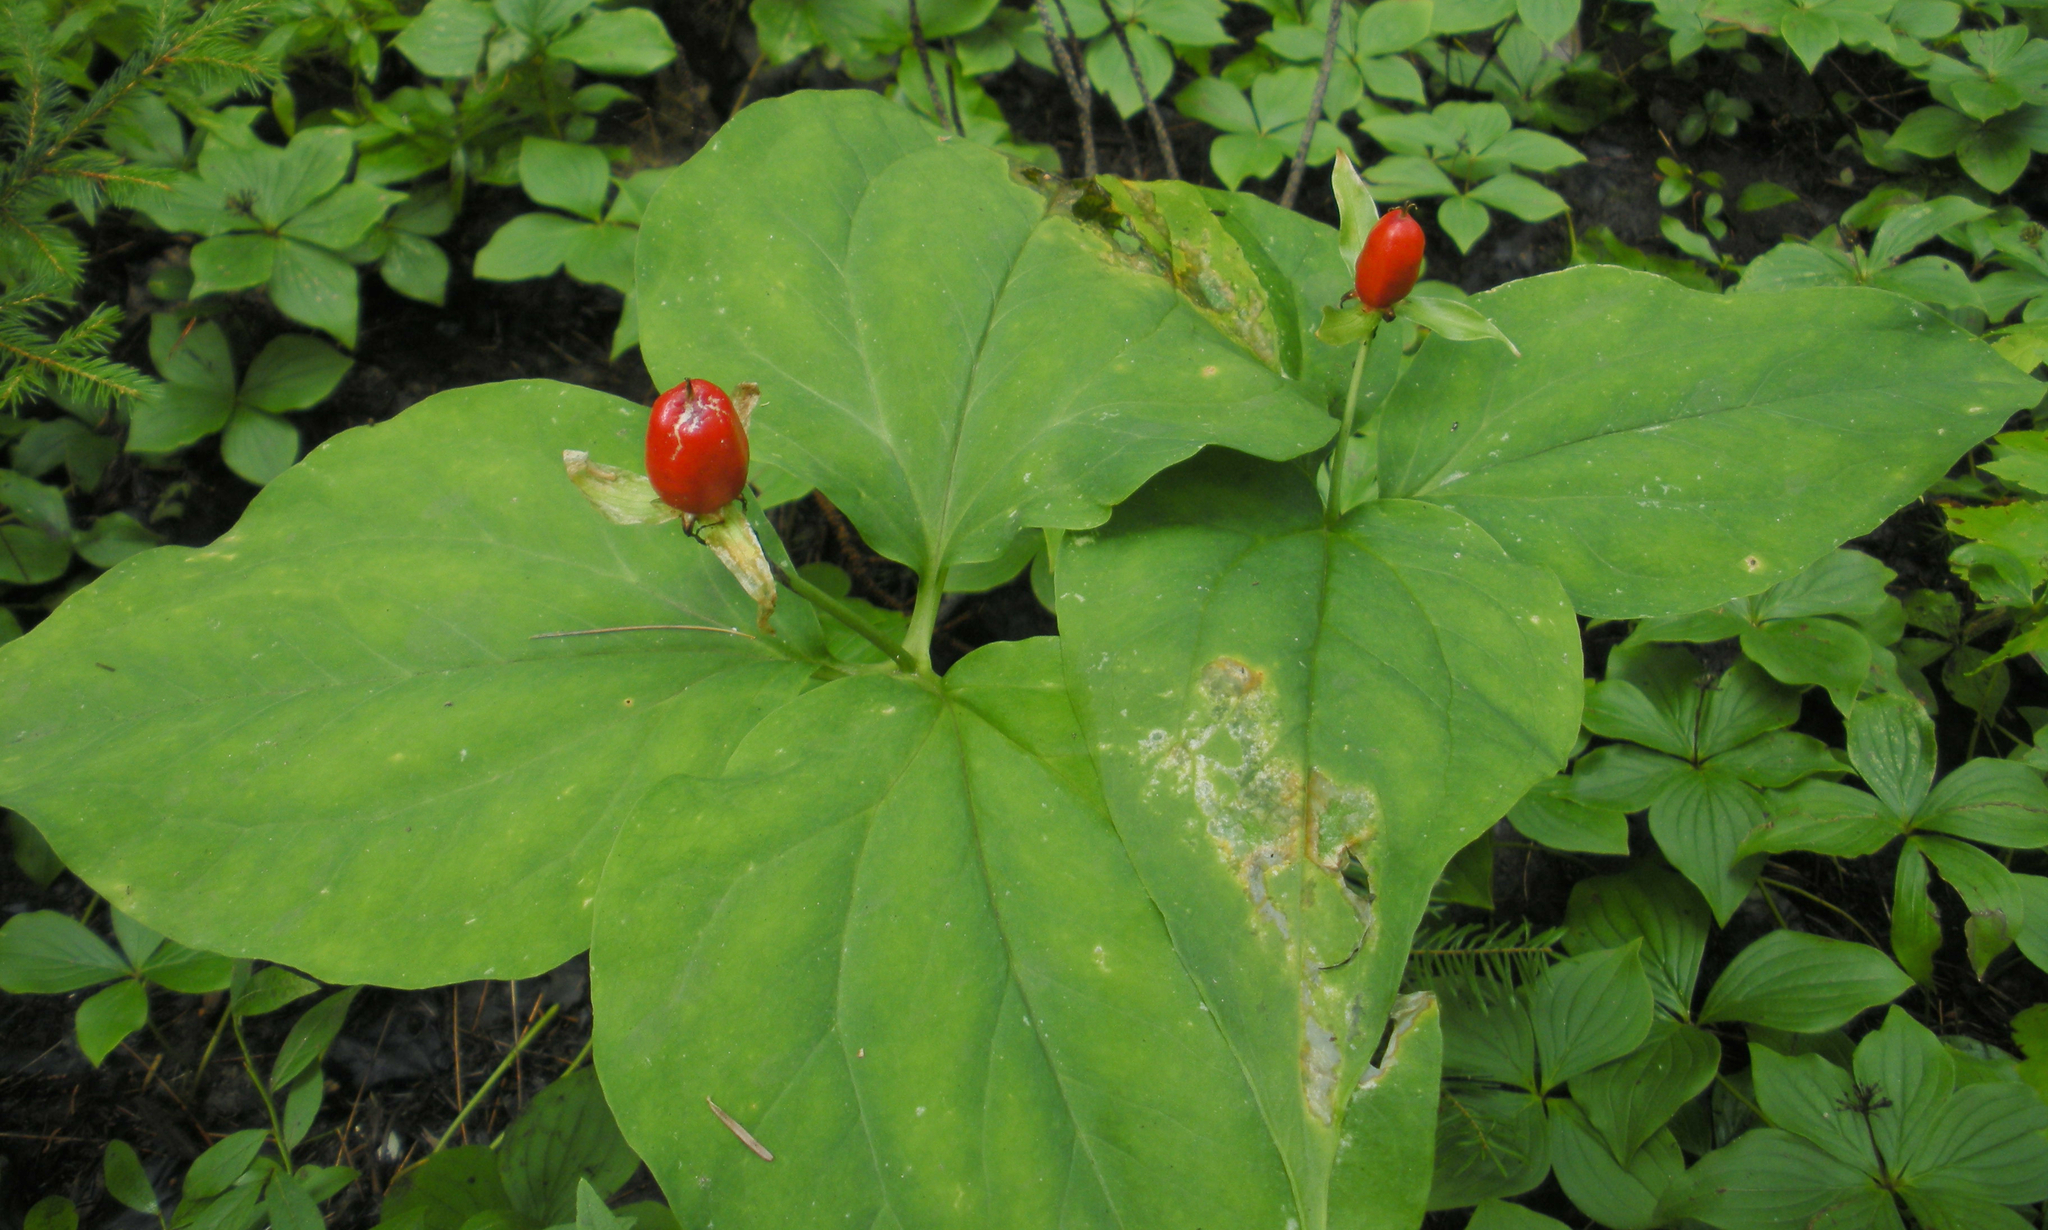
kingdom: Plantae
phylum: Tracheophyta
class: Liliopsida
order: Liliales
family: Melanthiaceae
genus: Trillium
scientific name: Trillium undulatum
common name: Paint trillium
